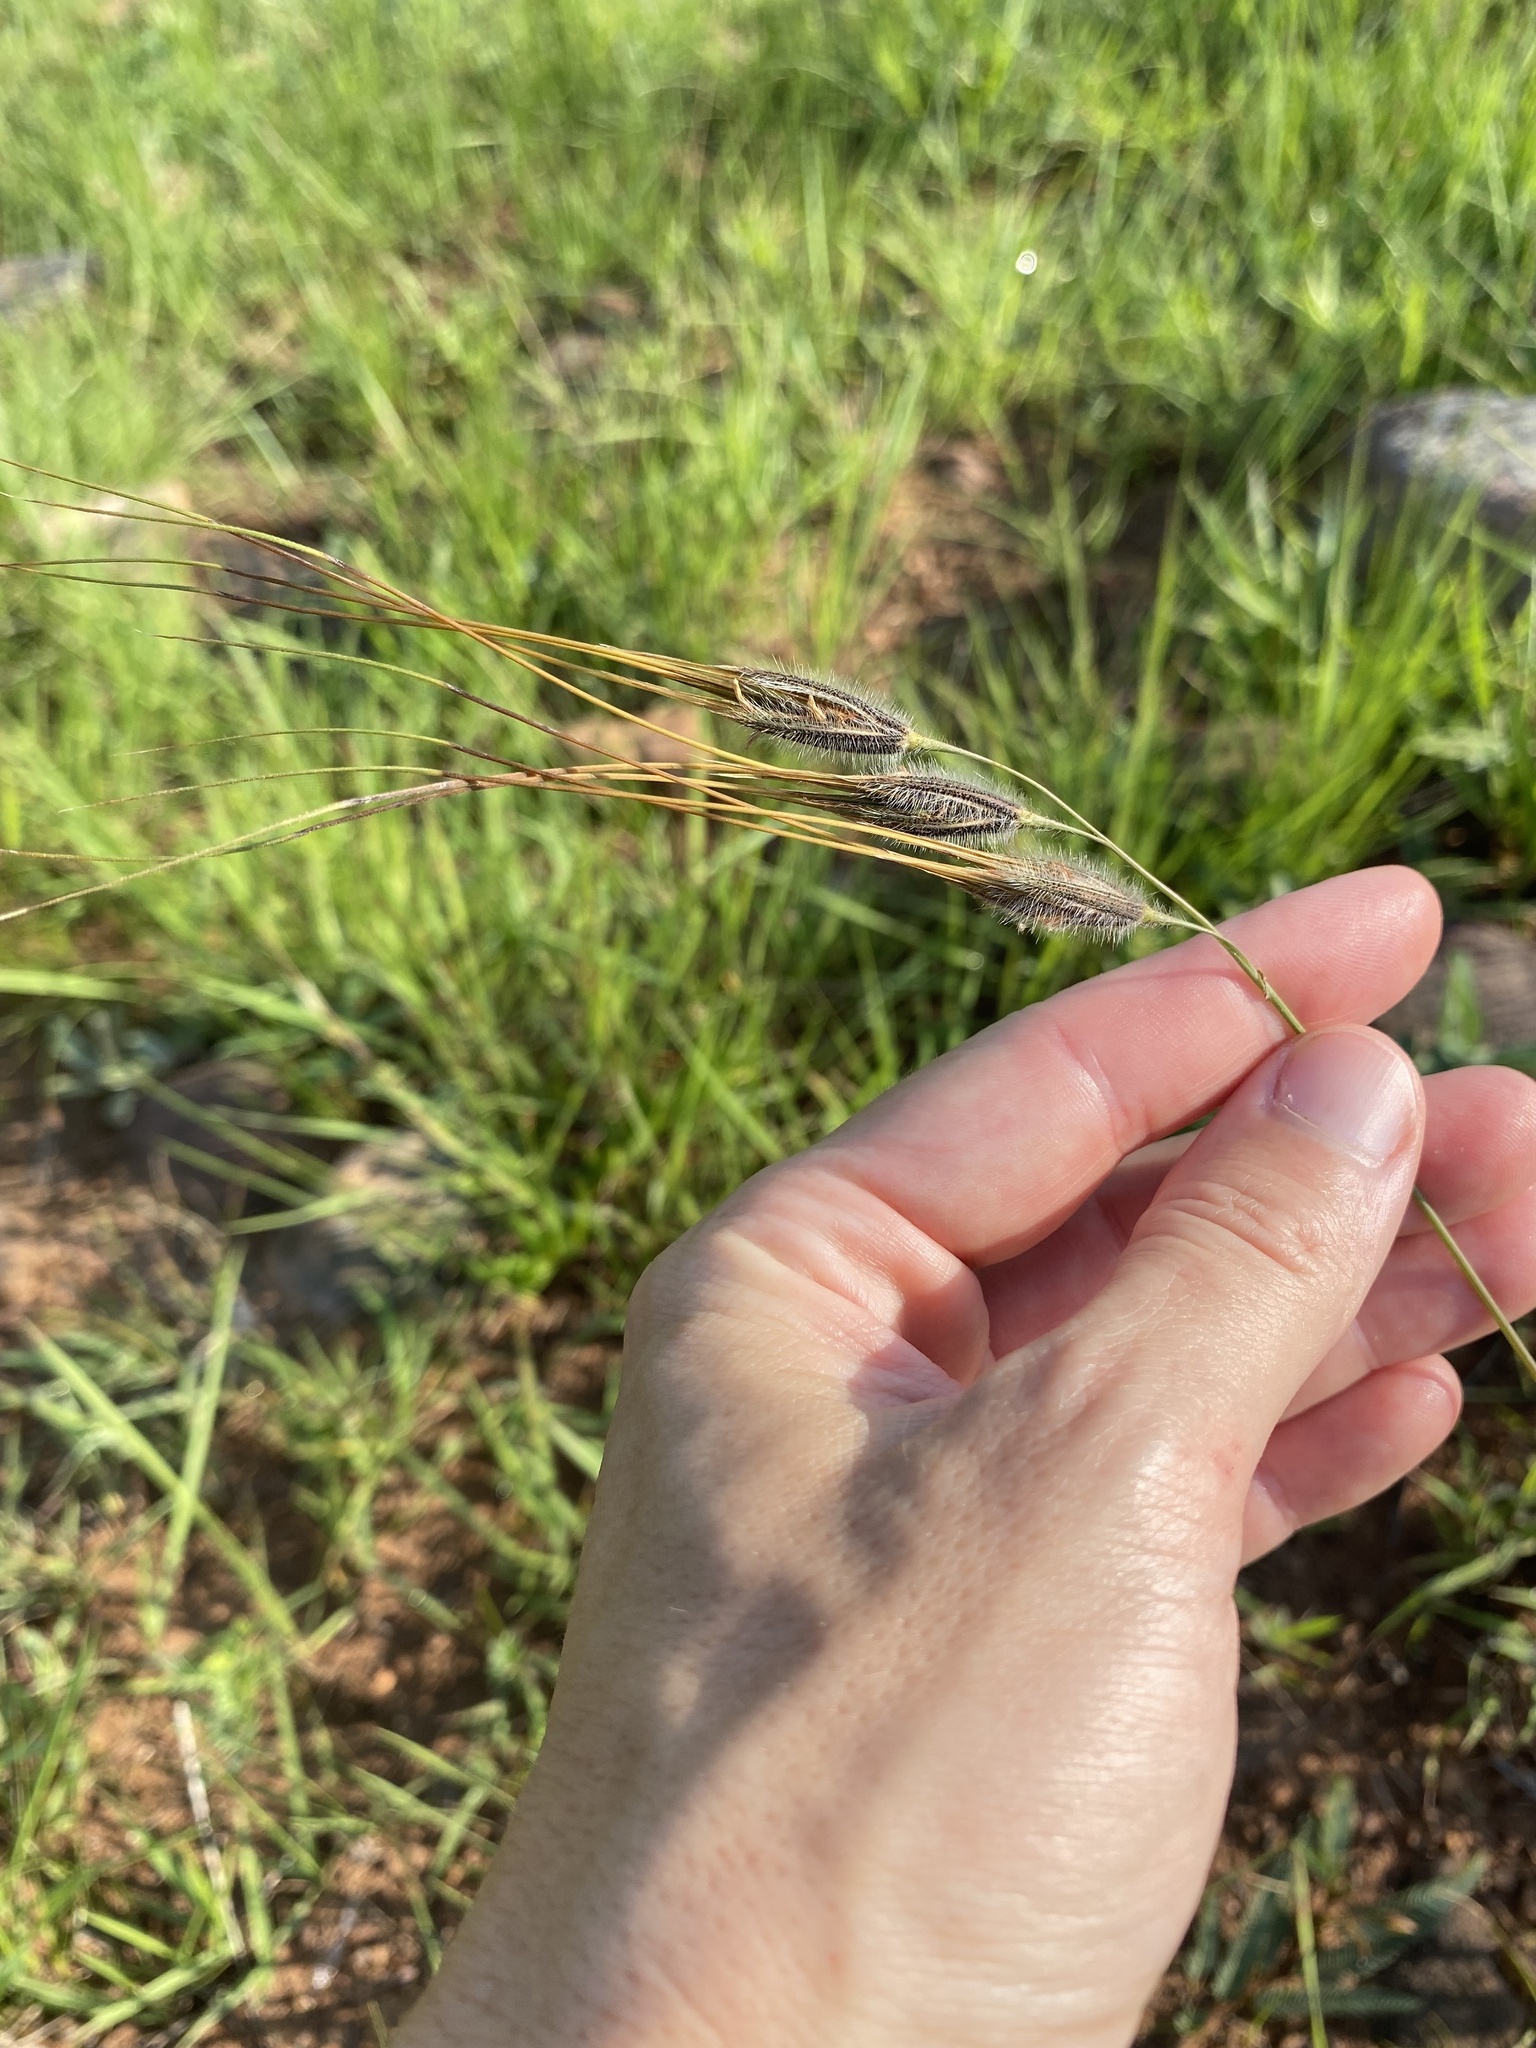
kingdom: Plantae
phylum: Tracheophyta
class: Liliopsida
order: Poales
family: Poaceae
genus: Tristachya
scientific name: Tristachya leucothrix
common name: Trident grass
